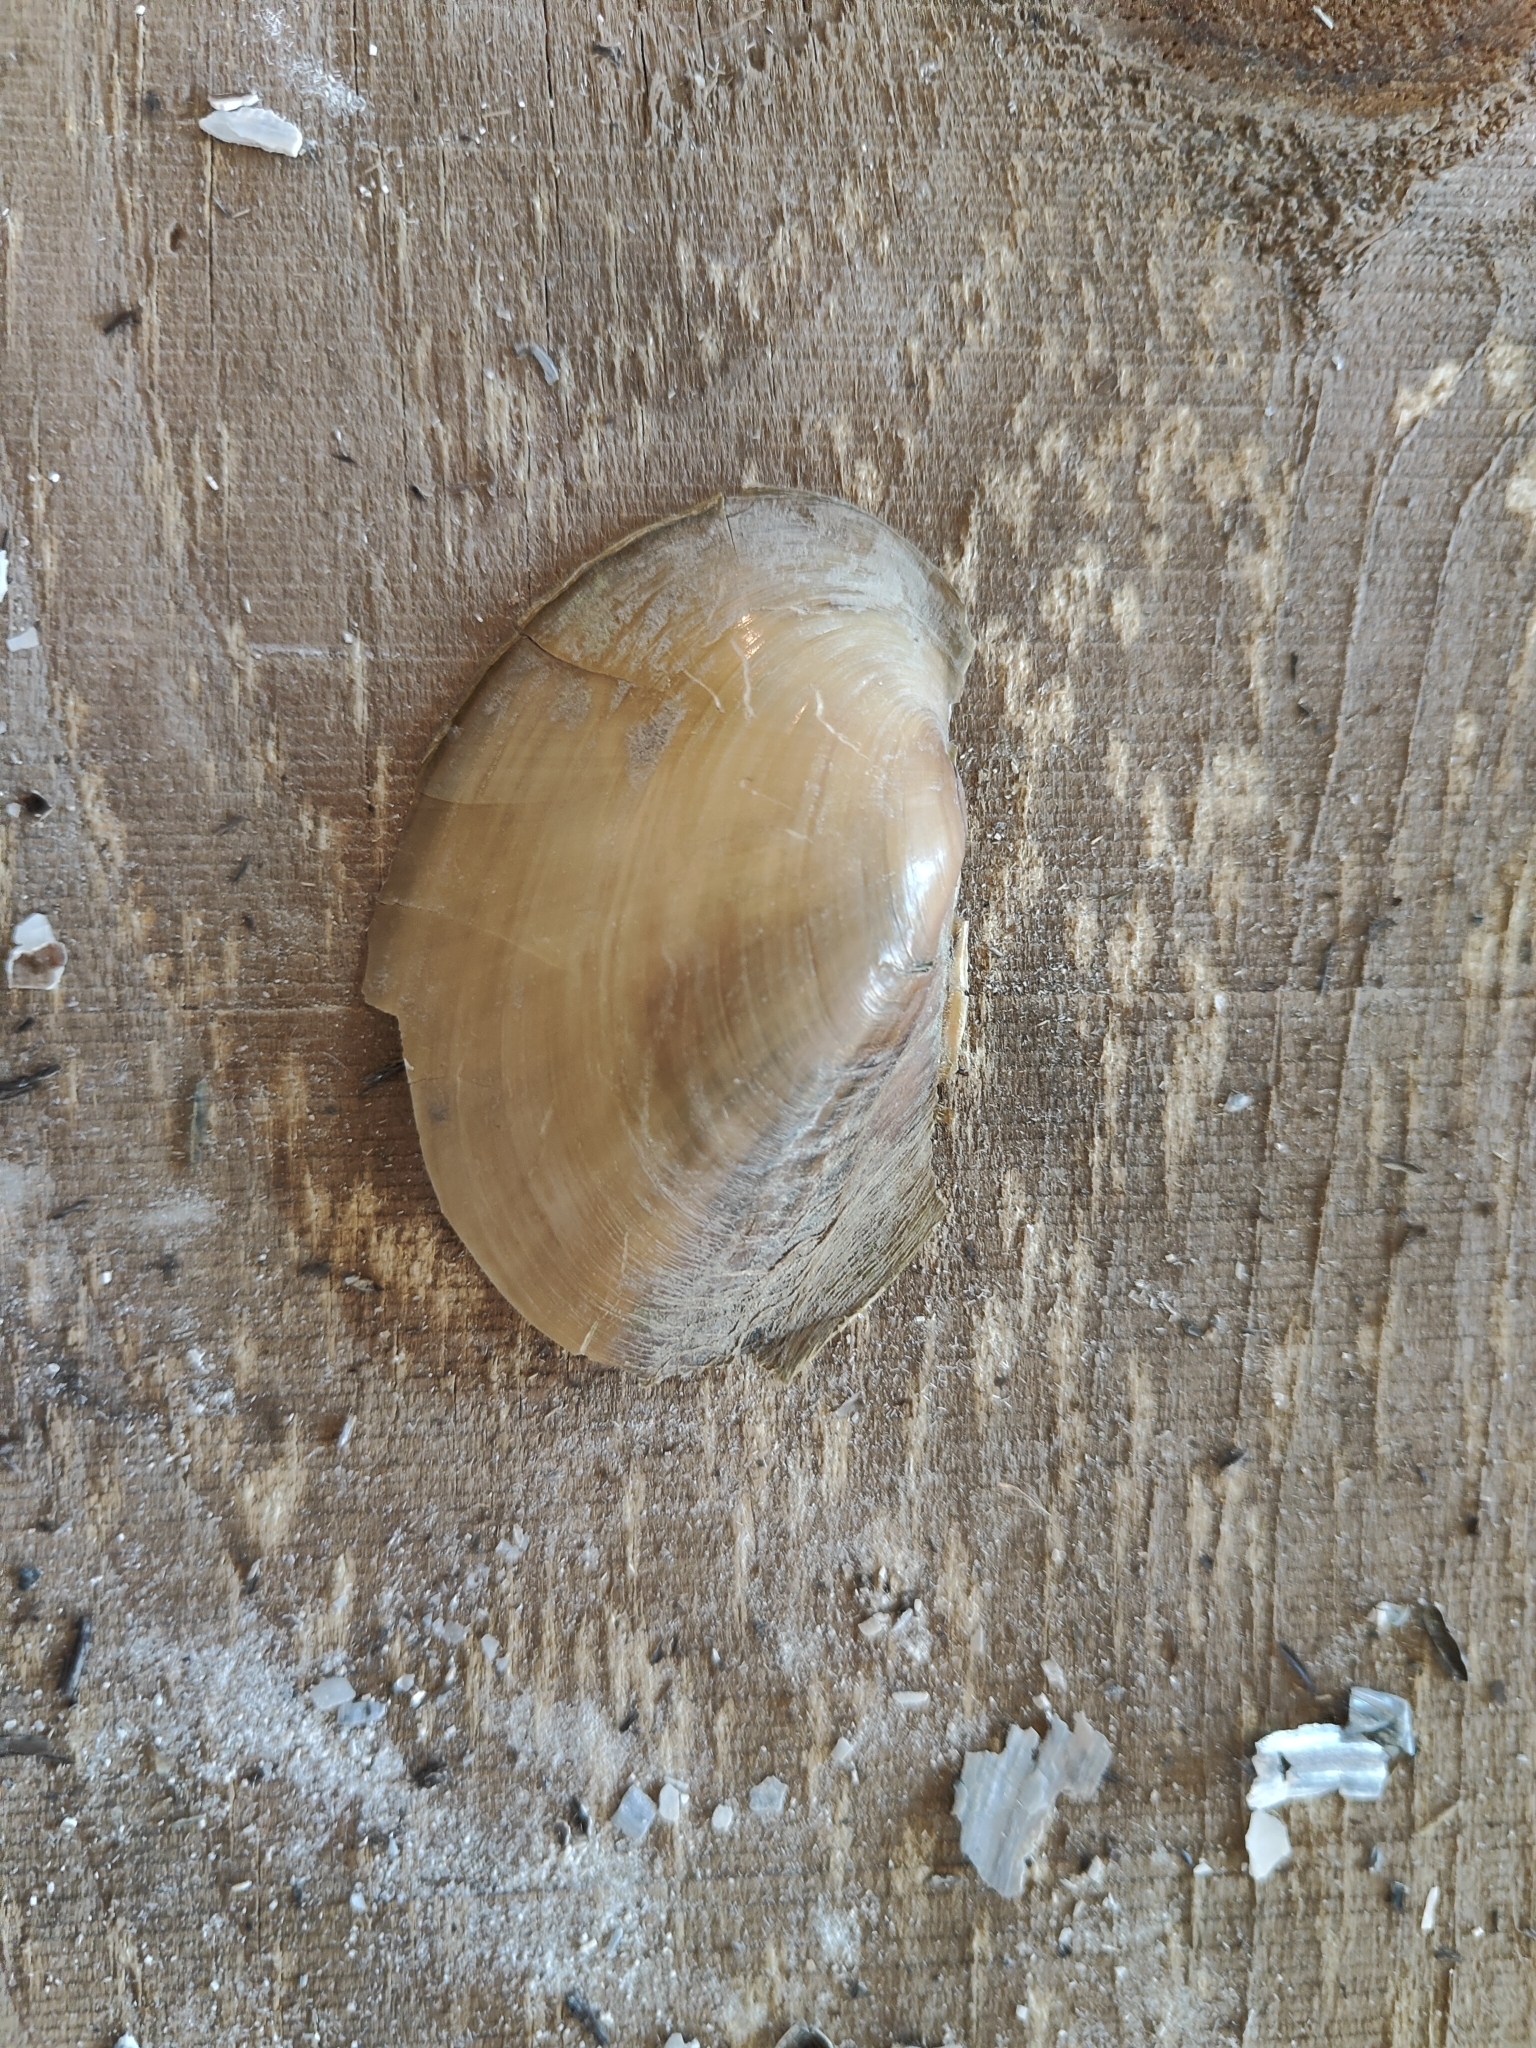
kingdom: Animalia
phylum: Mollusca
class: Bivalvia
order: Unionida
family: Unionidae
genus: Potamilus
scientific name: Potamilus fragilis
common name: Fragile papershell
